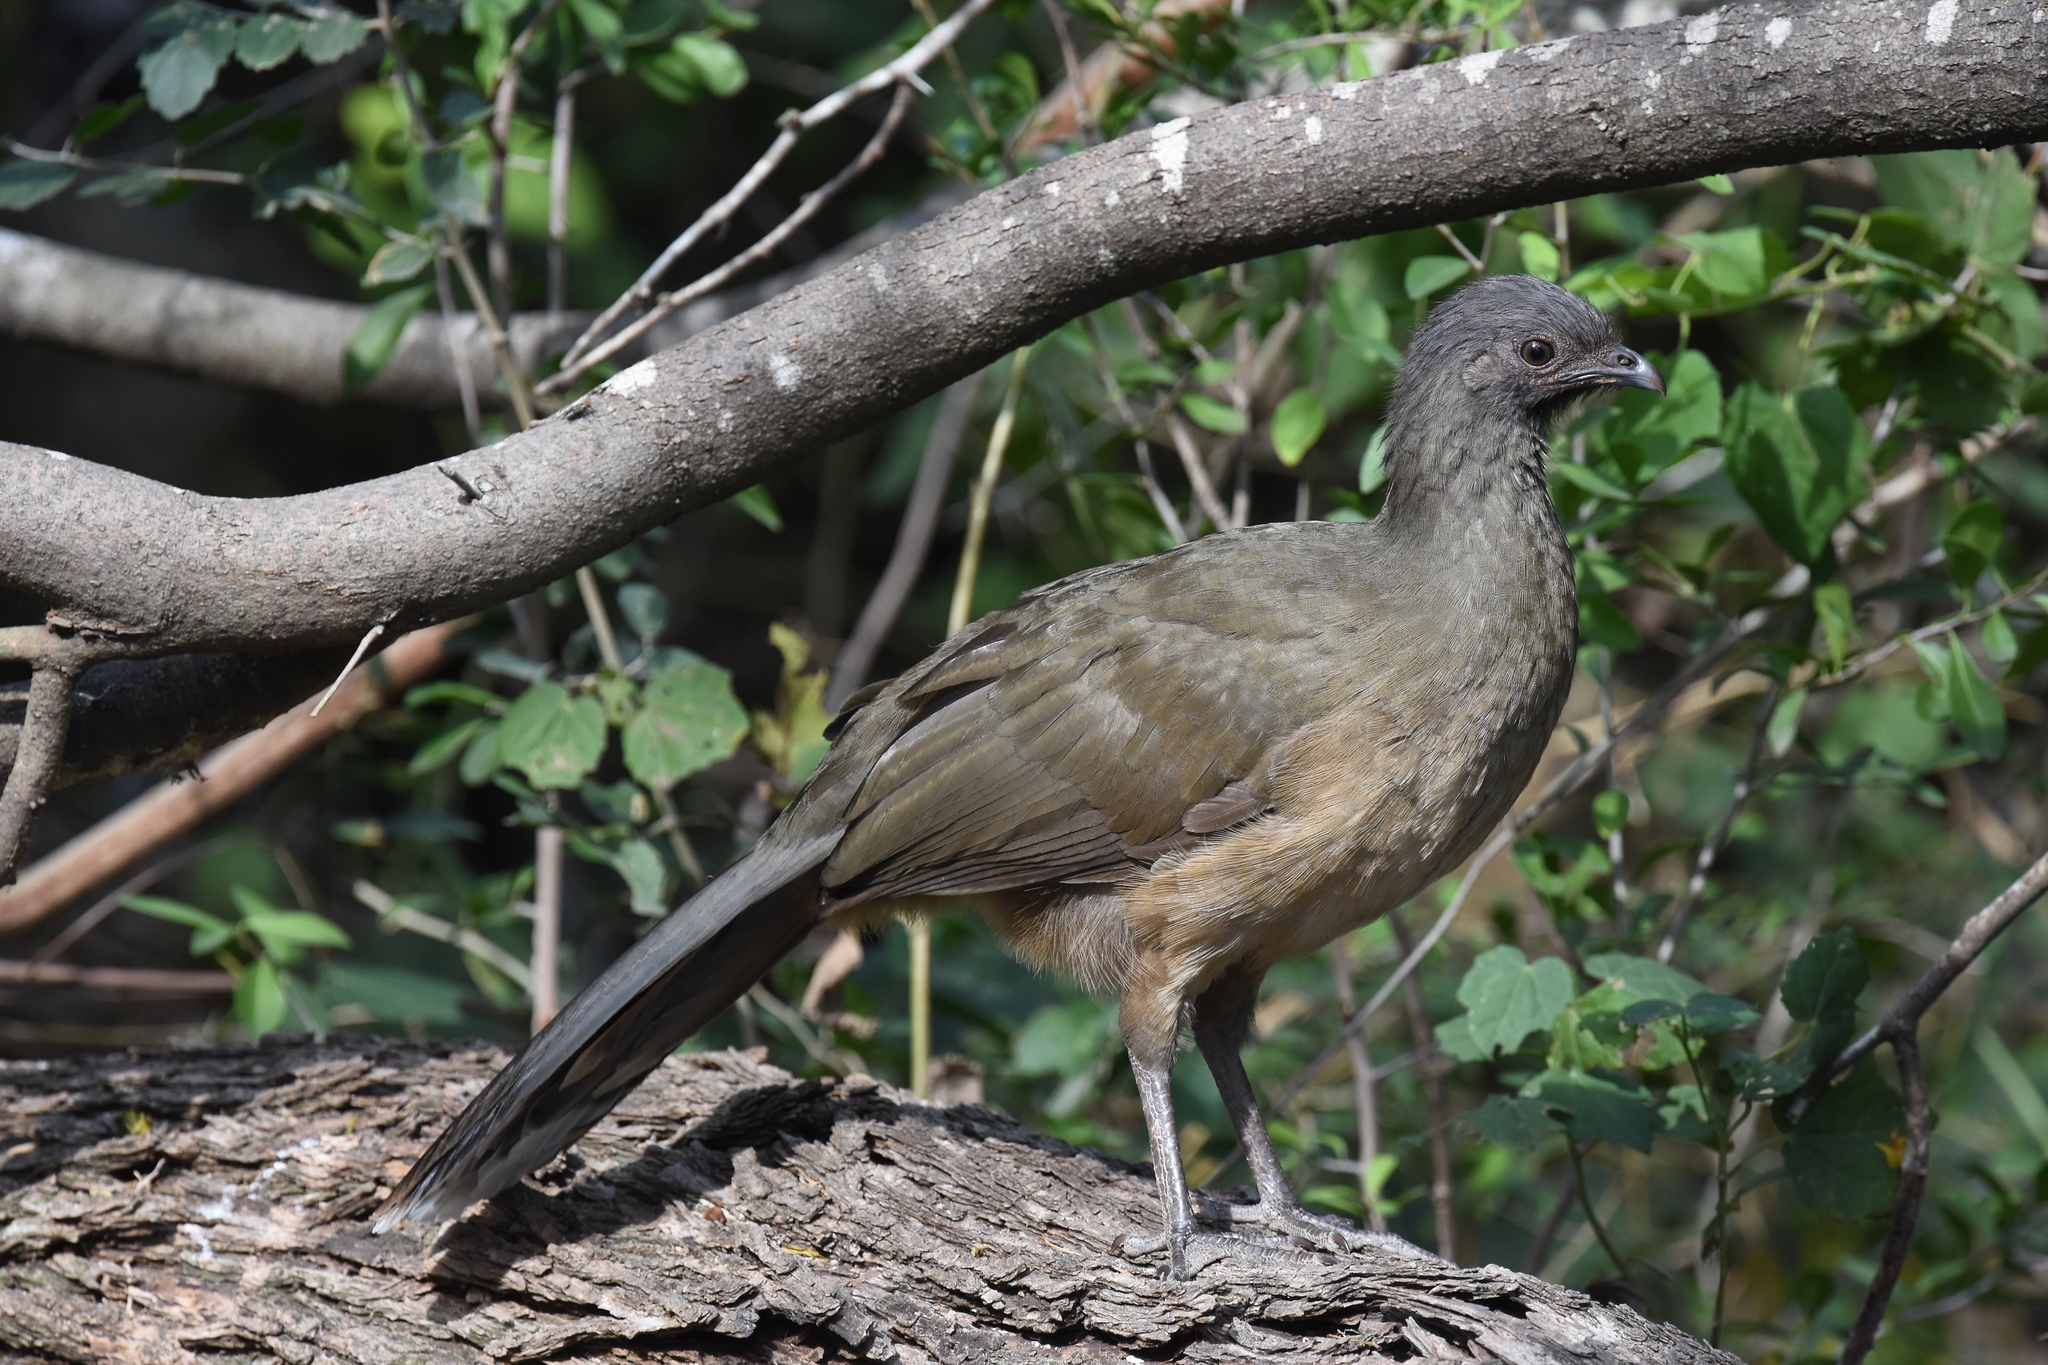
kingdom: Animalia
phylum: Chordata
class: Aves
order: Galliformes
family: Cracidae
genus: Ortalis
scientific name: Ortalis vetula
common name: Plain chachalaca
